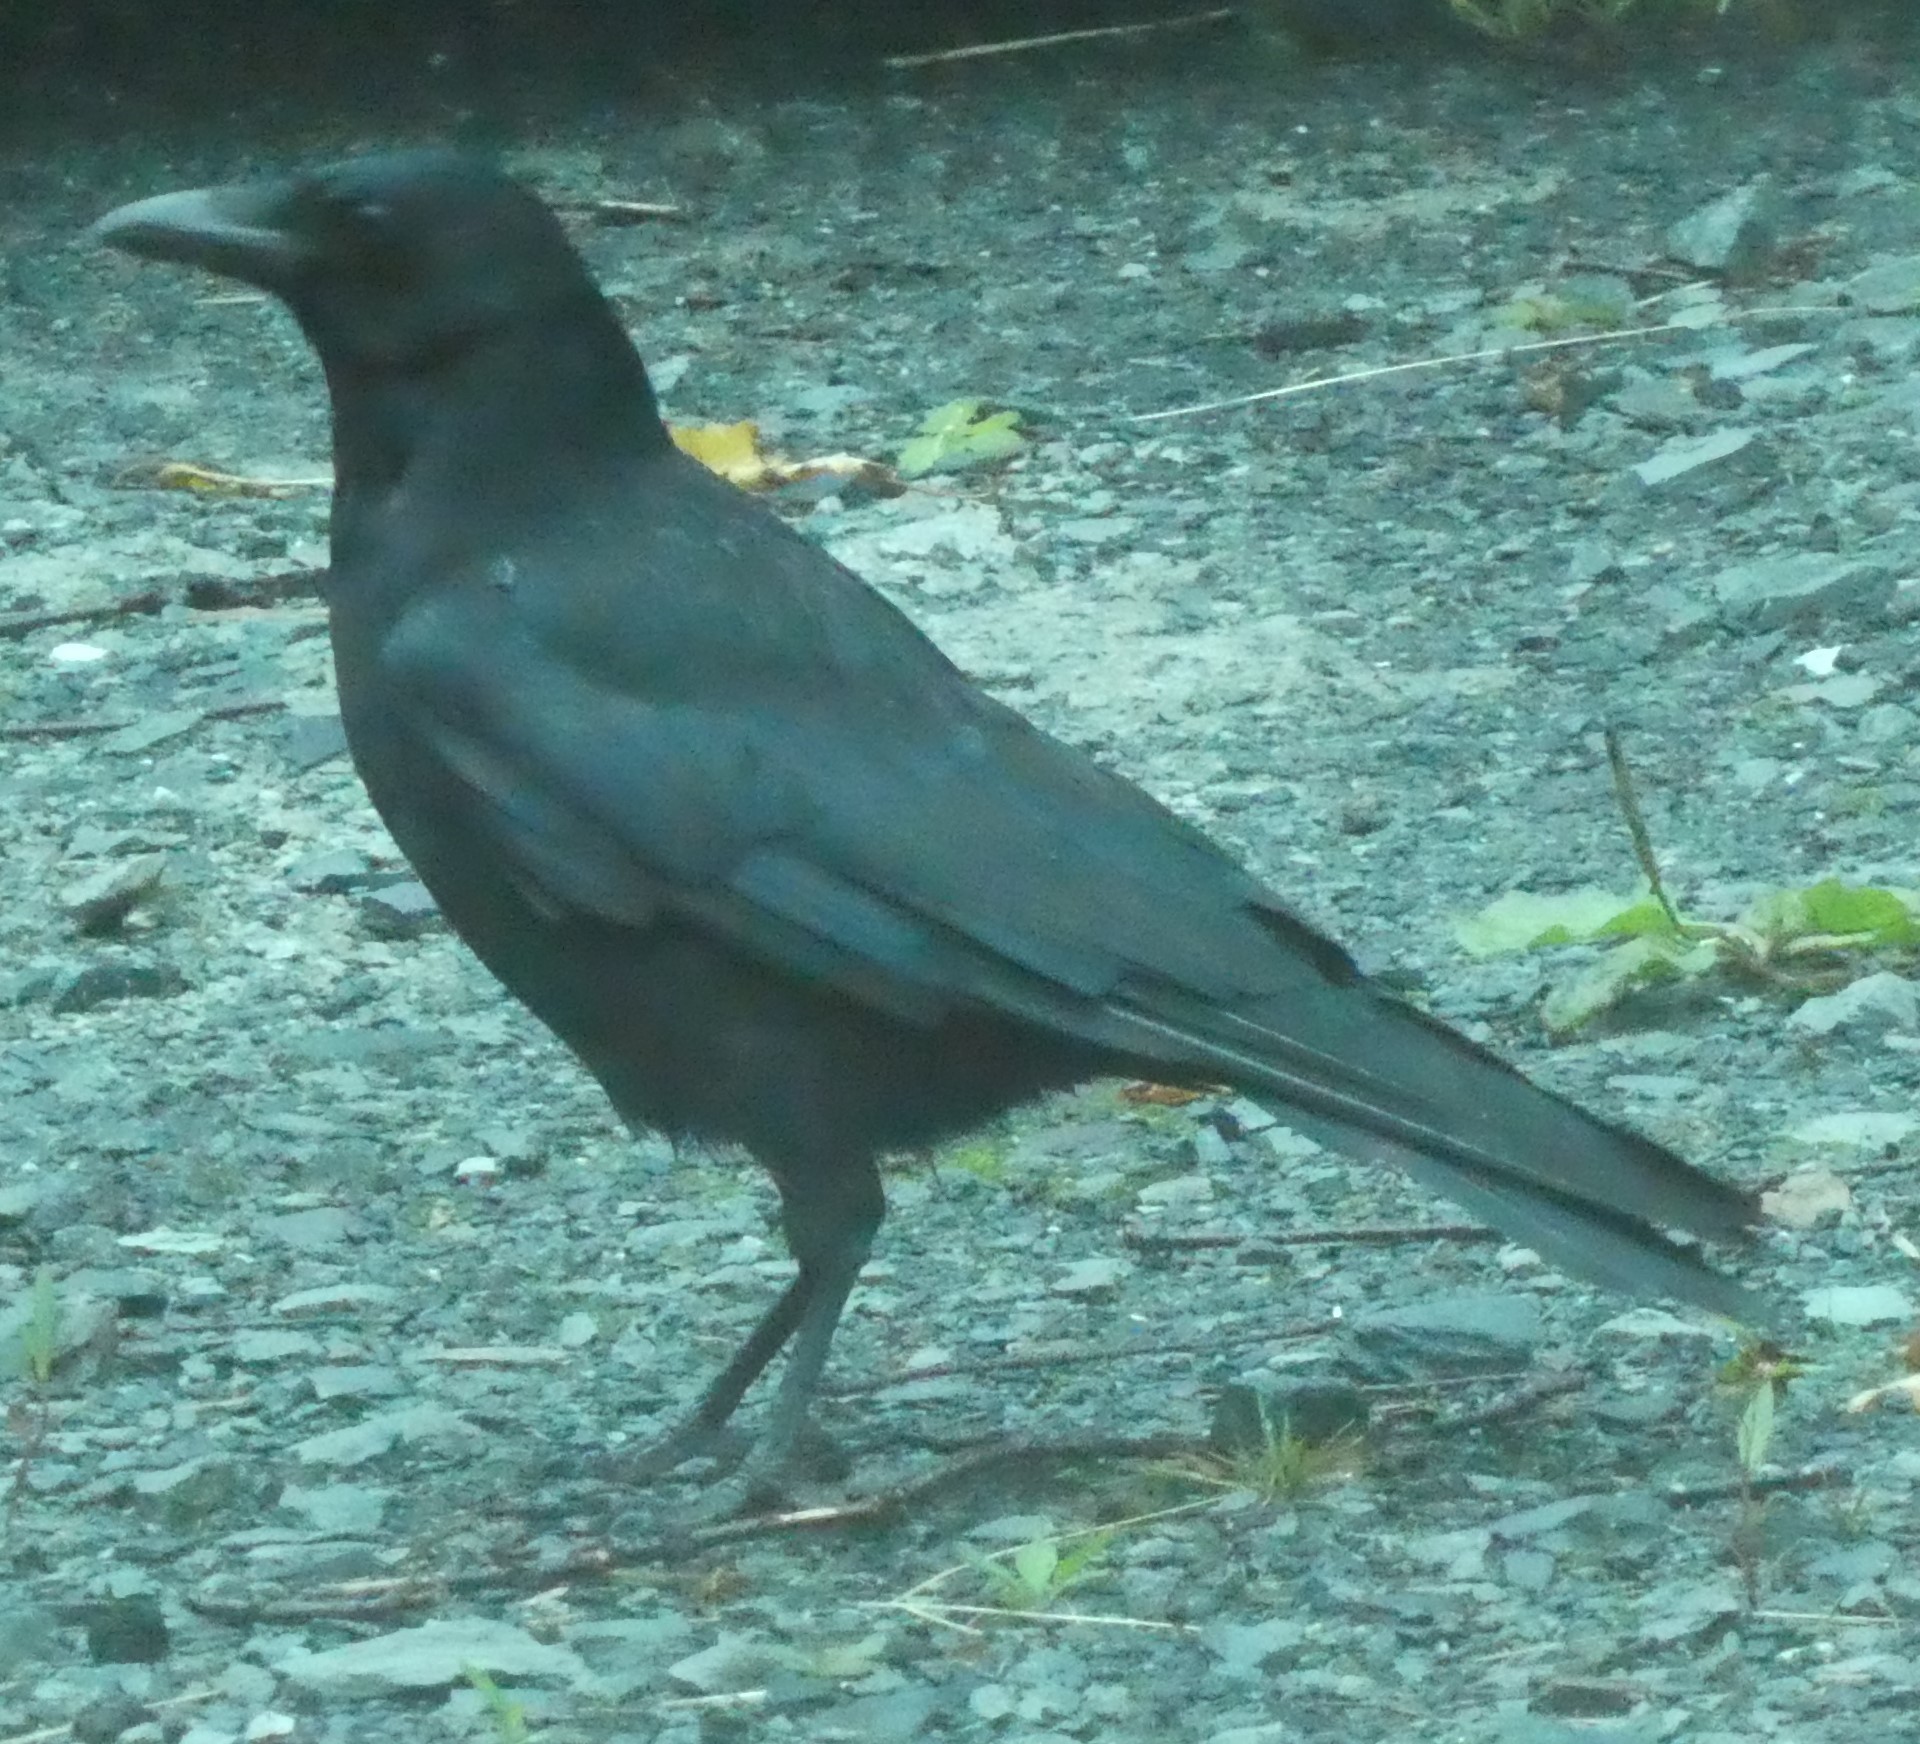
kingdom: Animalia
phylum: Chordata
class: Aves
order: Passeriformes
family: Corvidae
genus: Corvus
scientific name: Corvus corone
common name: Carrion crow
